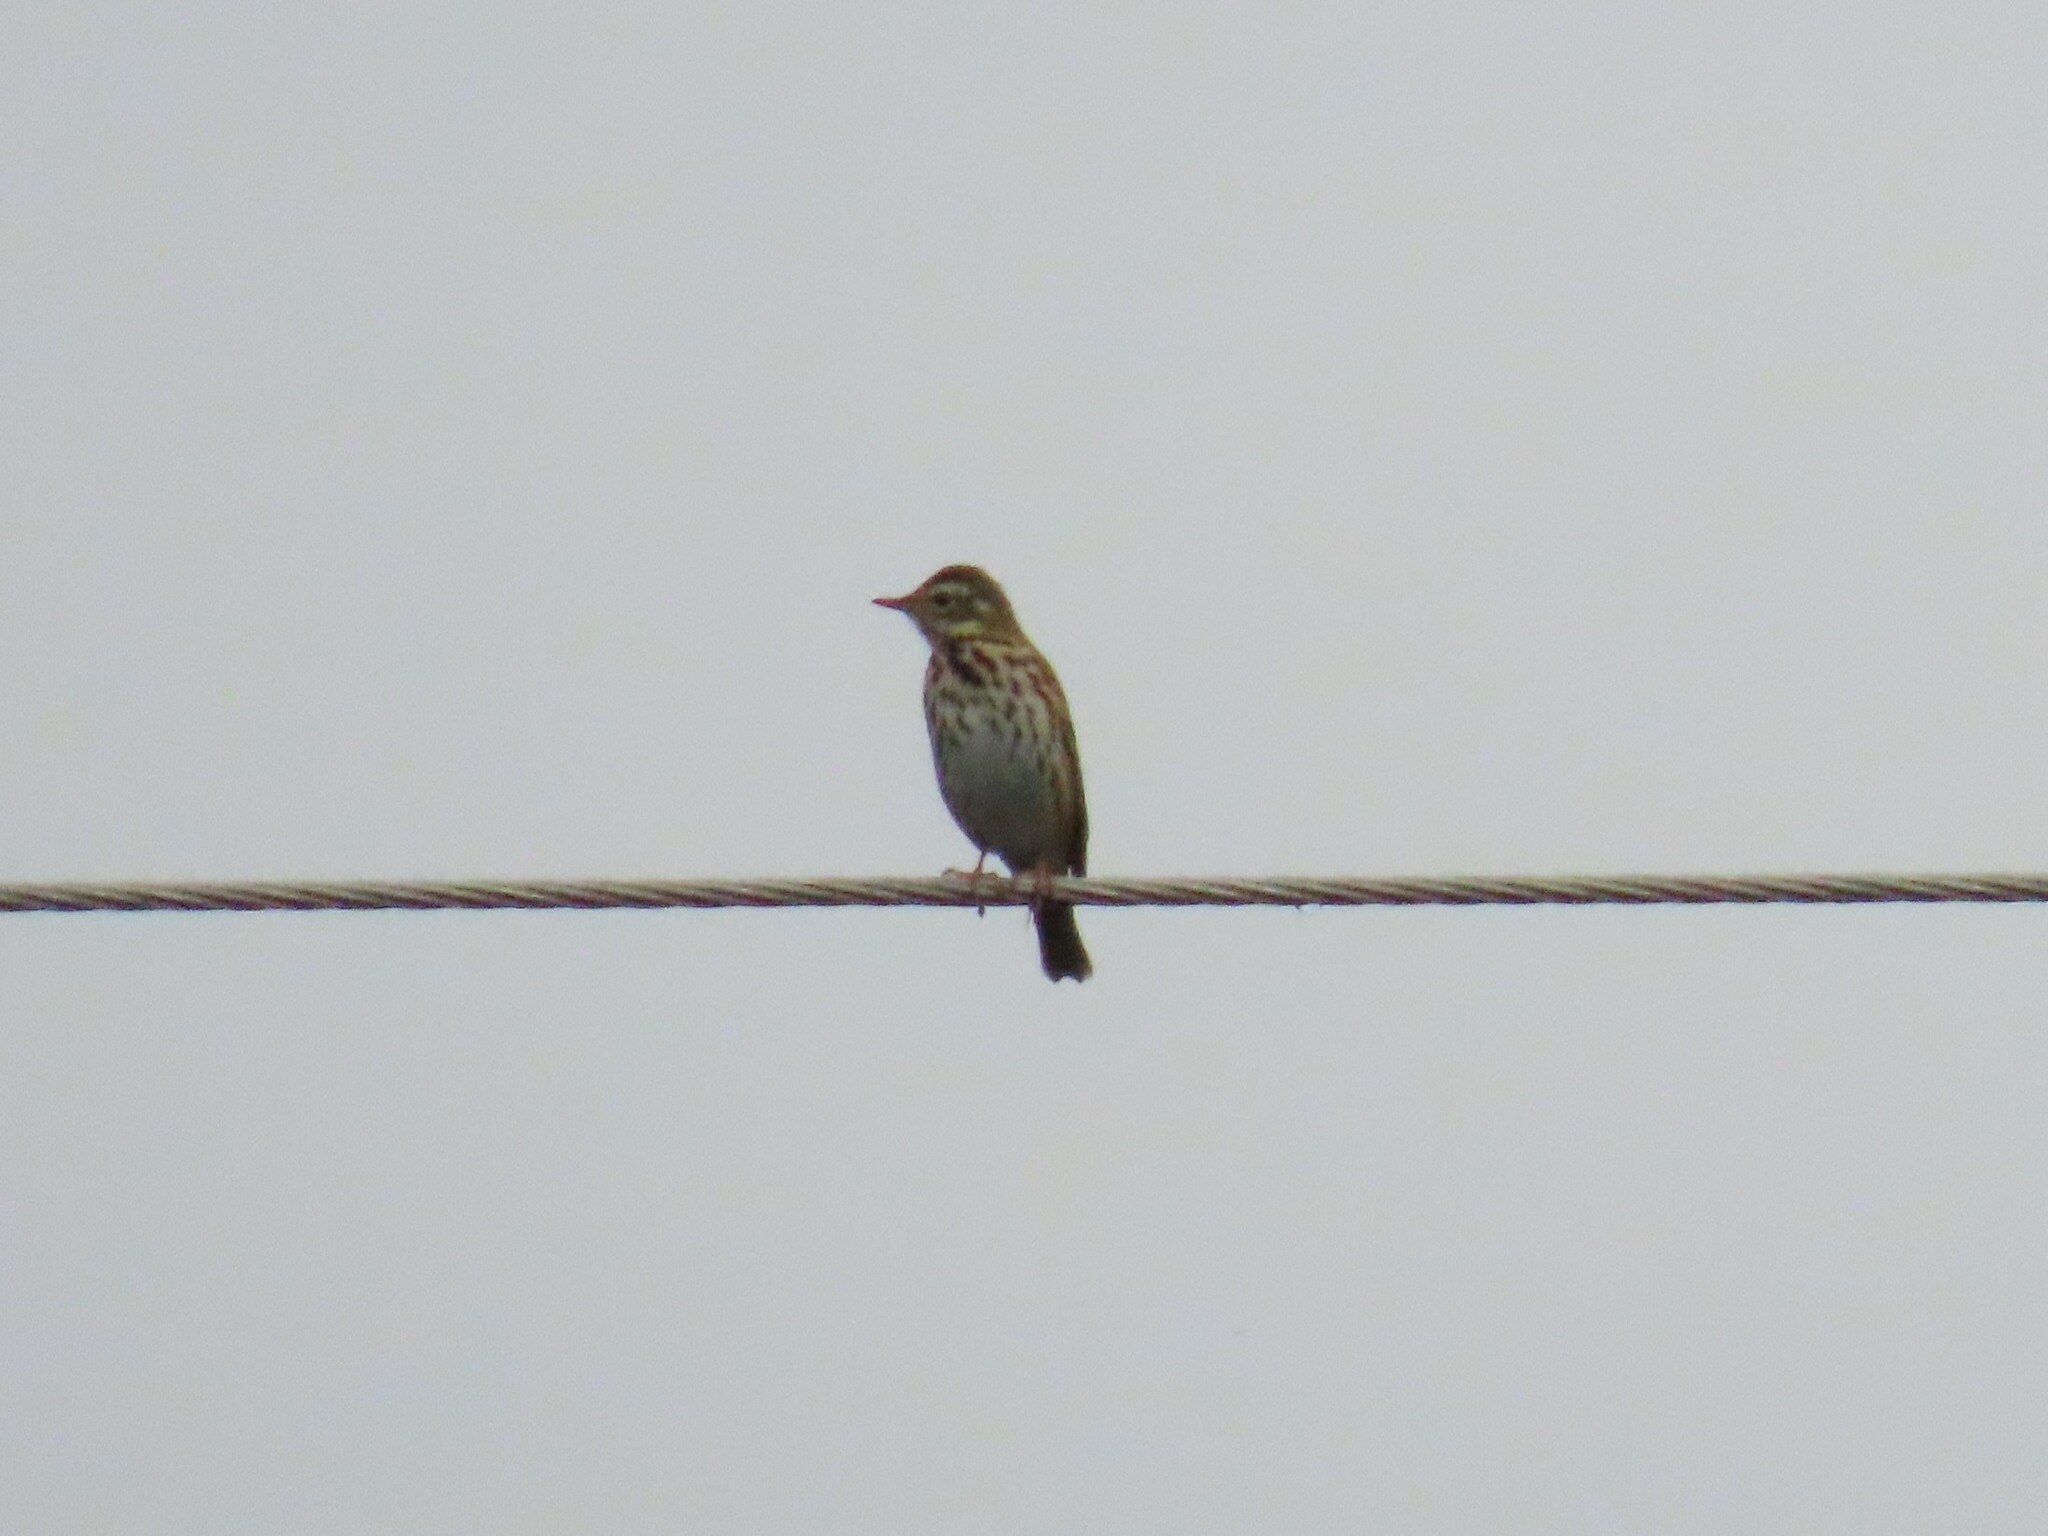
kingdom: Animalia
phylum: Chordata
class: Aves
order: Passeriformes
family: Motacillidae
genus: Anthus
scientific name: Anthus hodgsoni
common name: Olive-backed pipit
